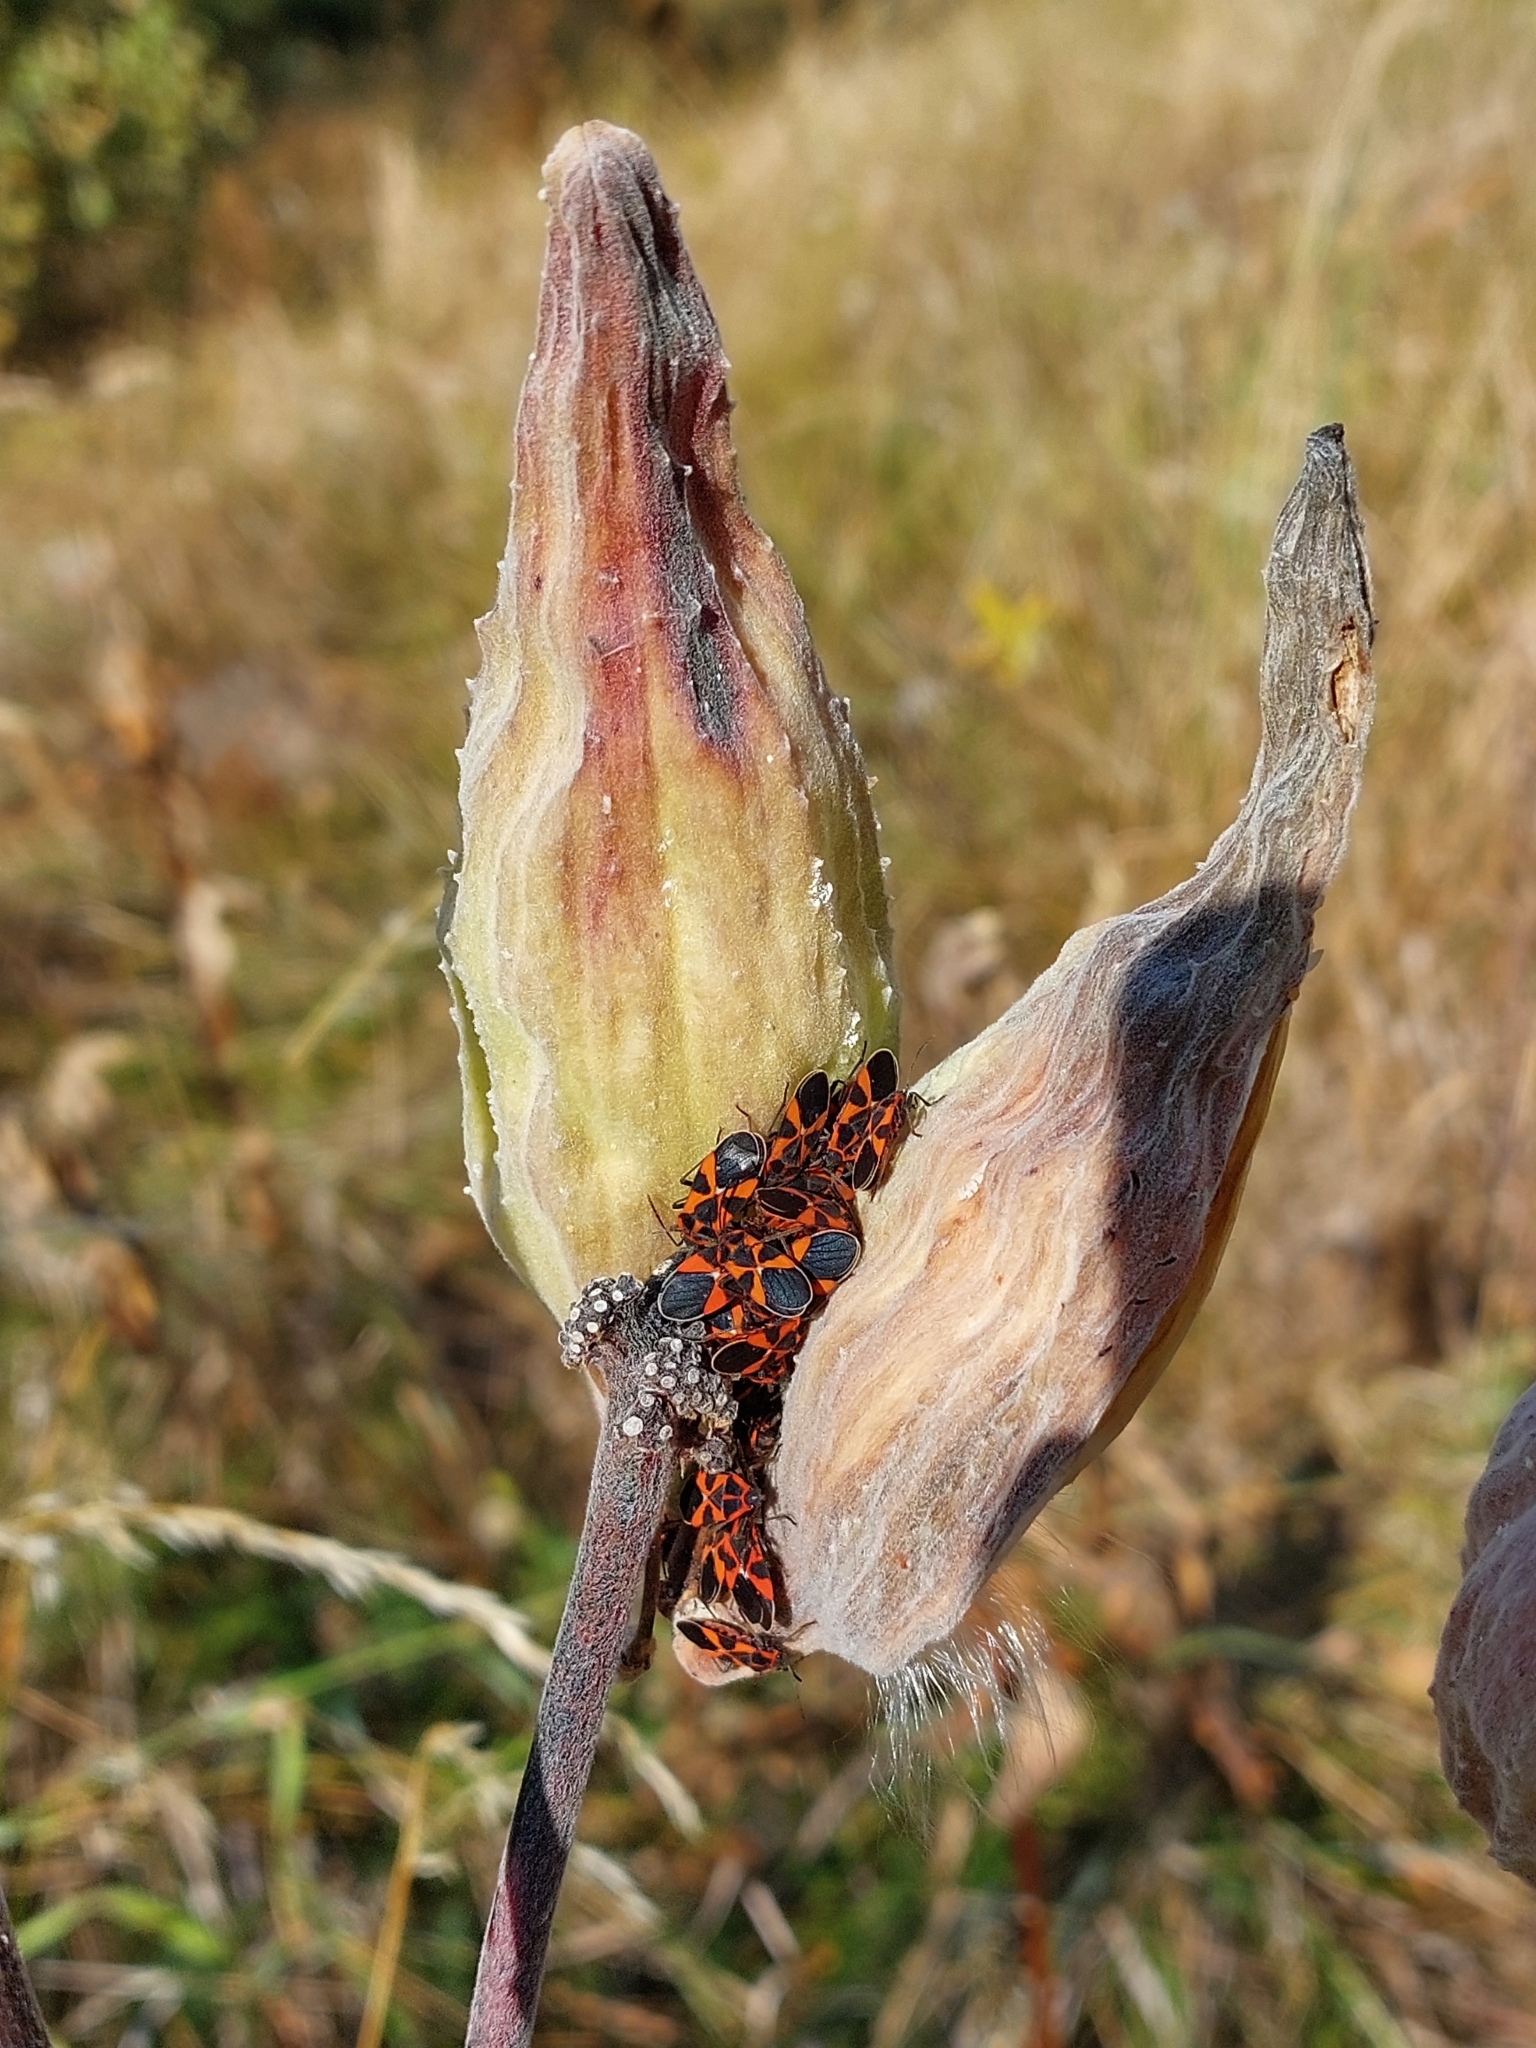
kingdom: Animalia
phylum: Arthropoda
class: Insecta
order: Hemiptera
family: Lygaeidae
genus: Tropidothorax
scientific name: Tropidothorax leucopterus
